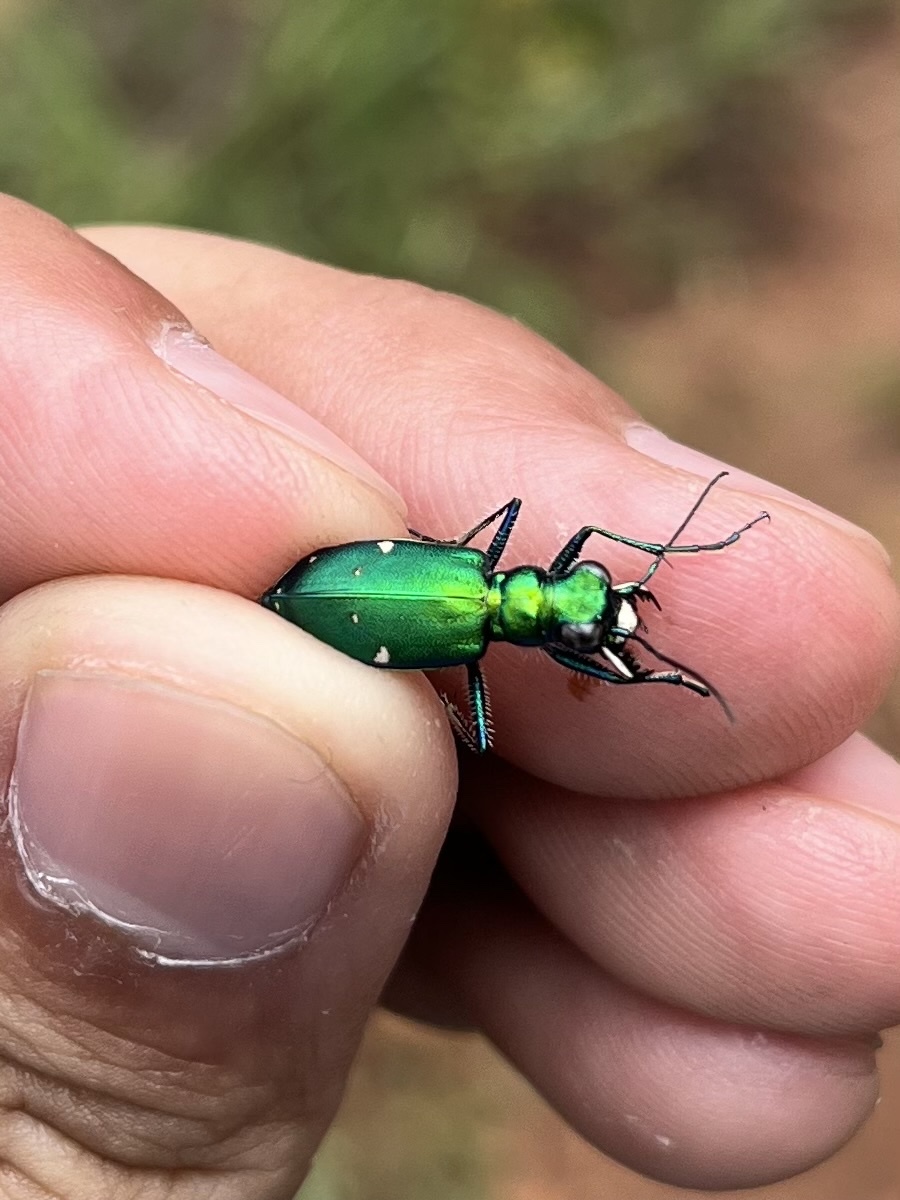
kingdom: Animalia
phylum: Arthropoda
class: Insecta
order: Coleoptera
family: Carabidae
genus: Cicindela
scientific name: Cicindela sexguttata
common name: Six-spotted tiger beetle
